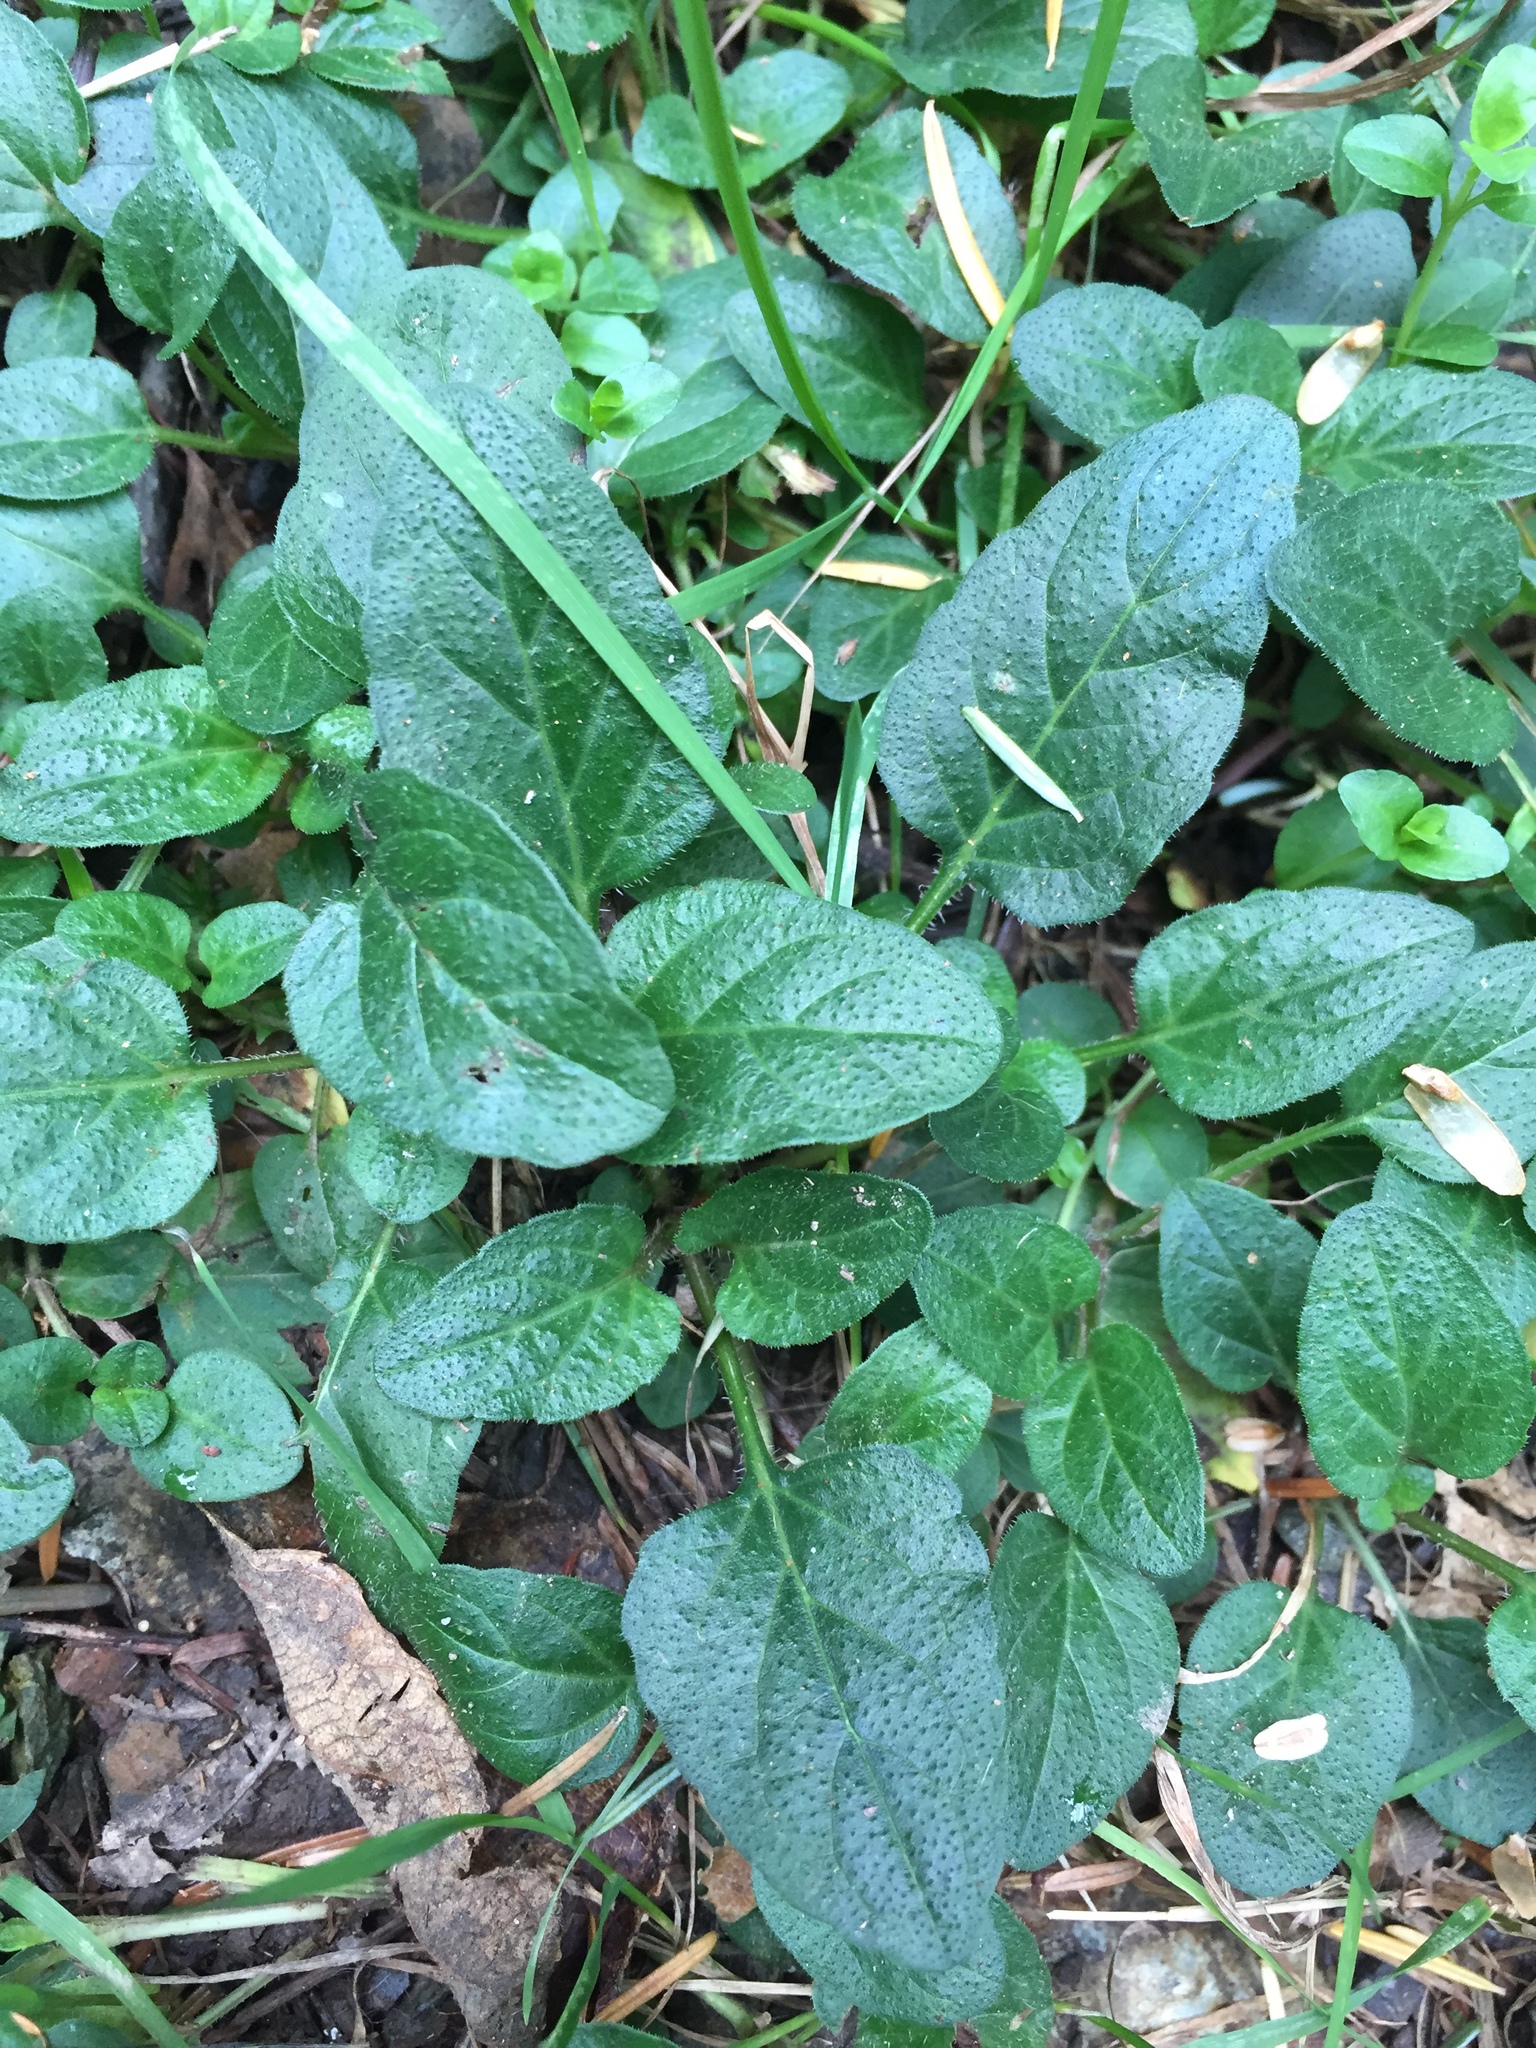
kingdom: Plantae
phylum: Tracheophyta
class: Magnoliopsida
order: Lamiales
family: Lamiaceae
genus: Prunella
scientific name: Prunella vulgaris
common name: Heal-all
